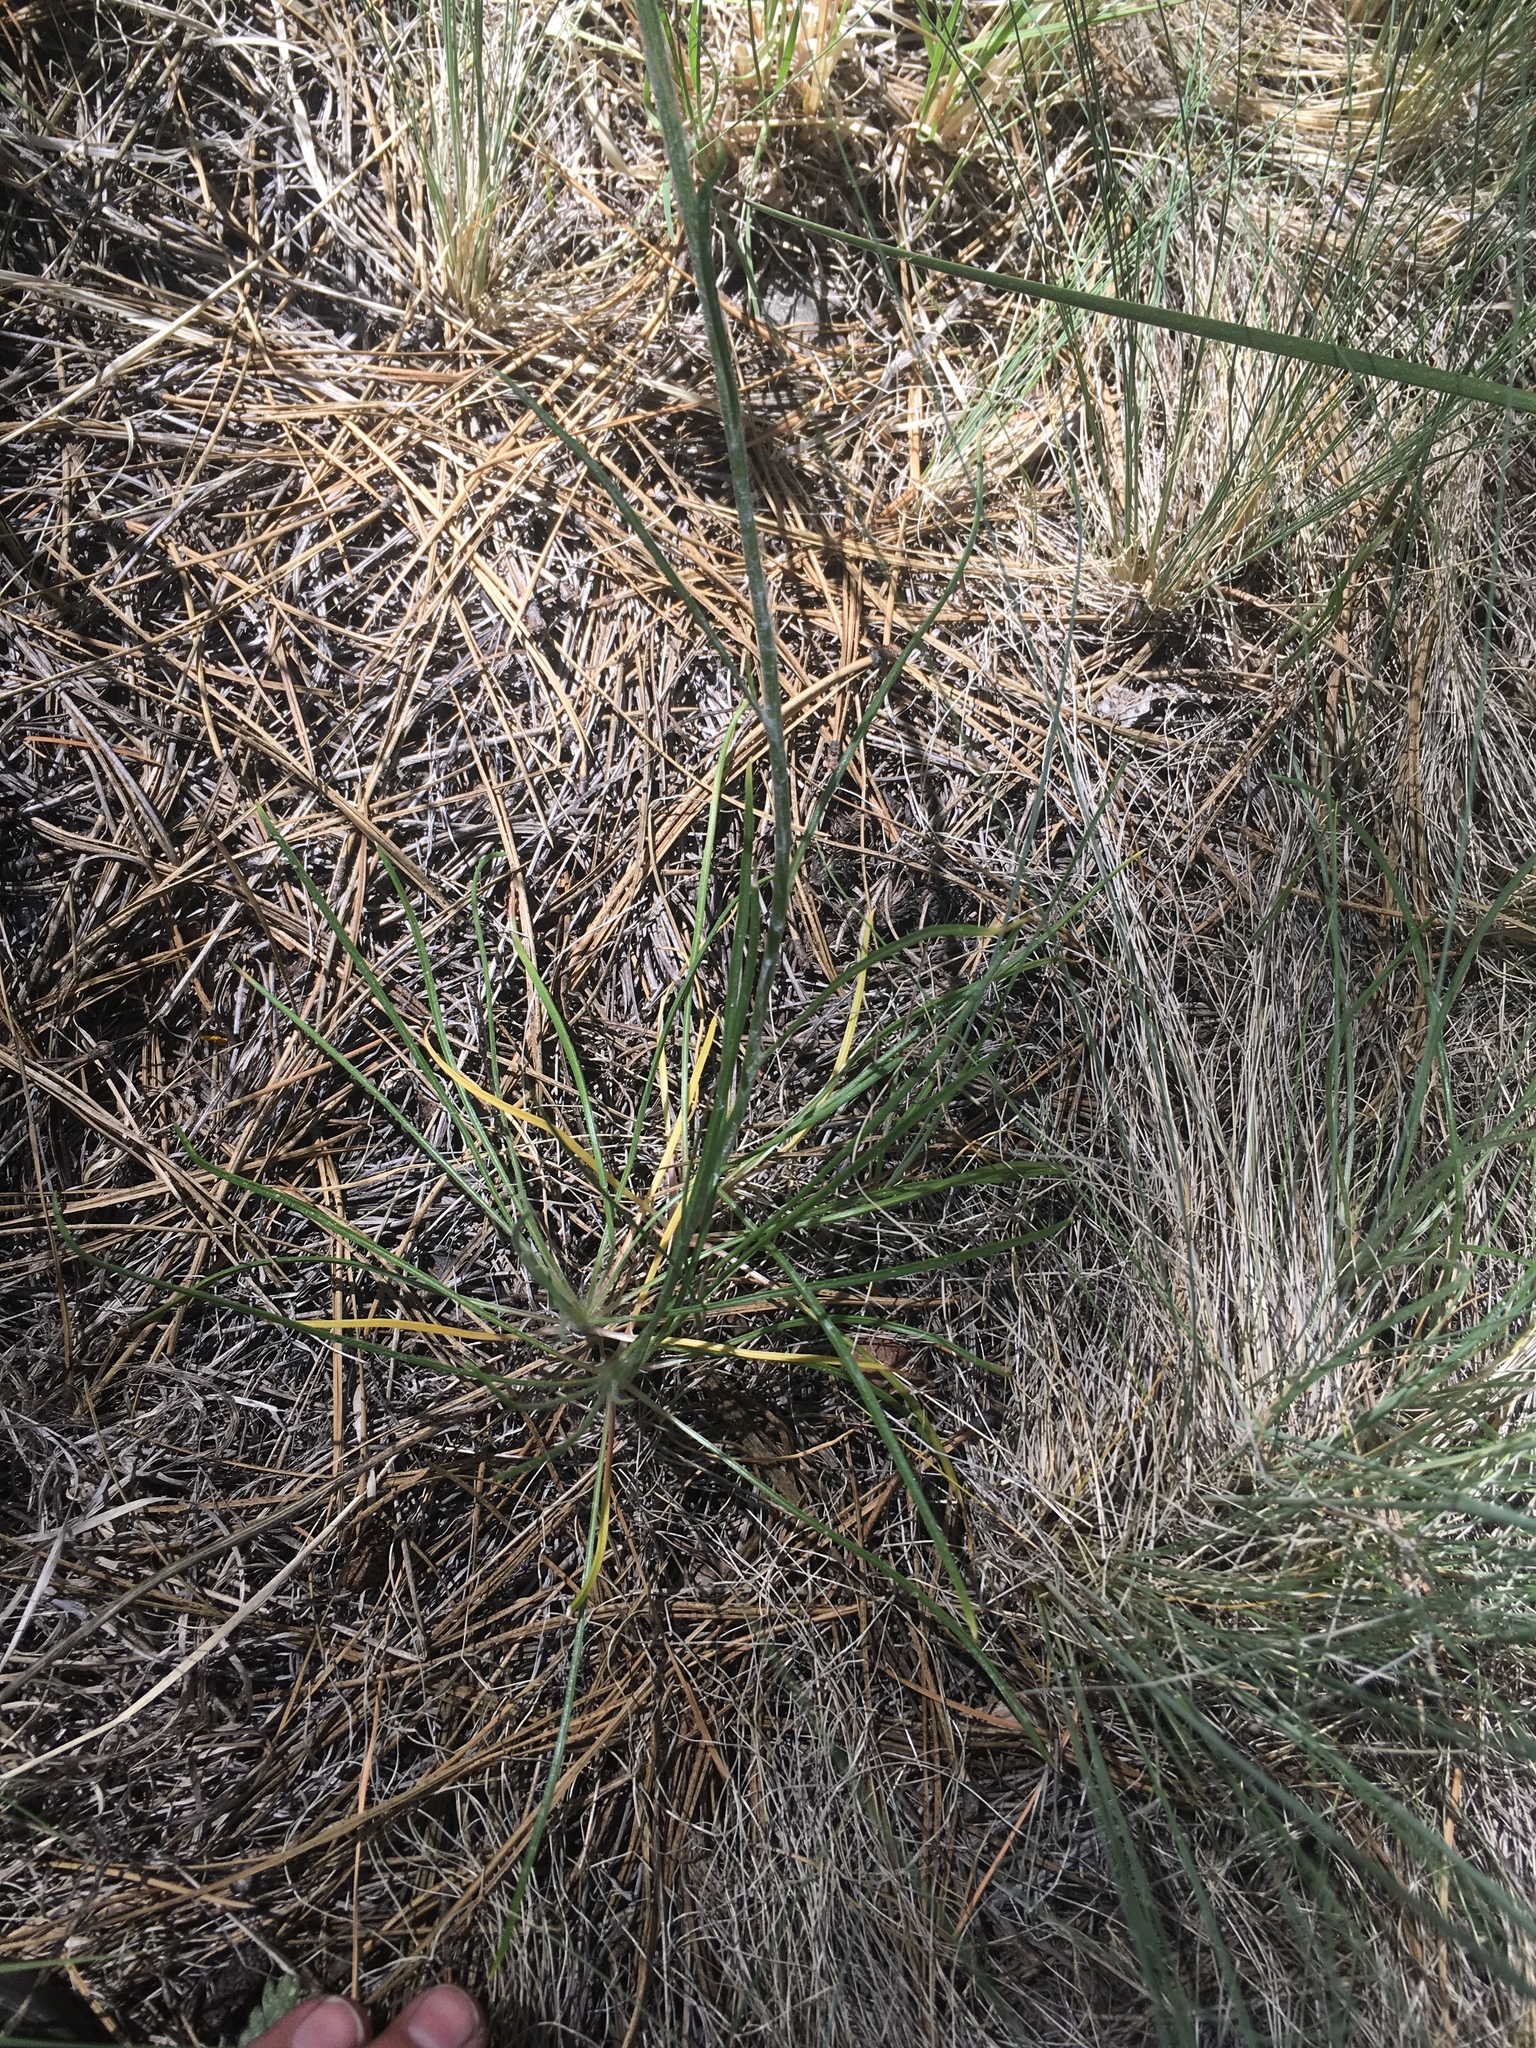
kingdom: Plantae
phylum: Tracheophyta
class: Magnoliopsida
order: Asterales
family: Asteraceae
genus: Hymenoxys
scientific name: Hymenoxys bigelovii
